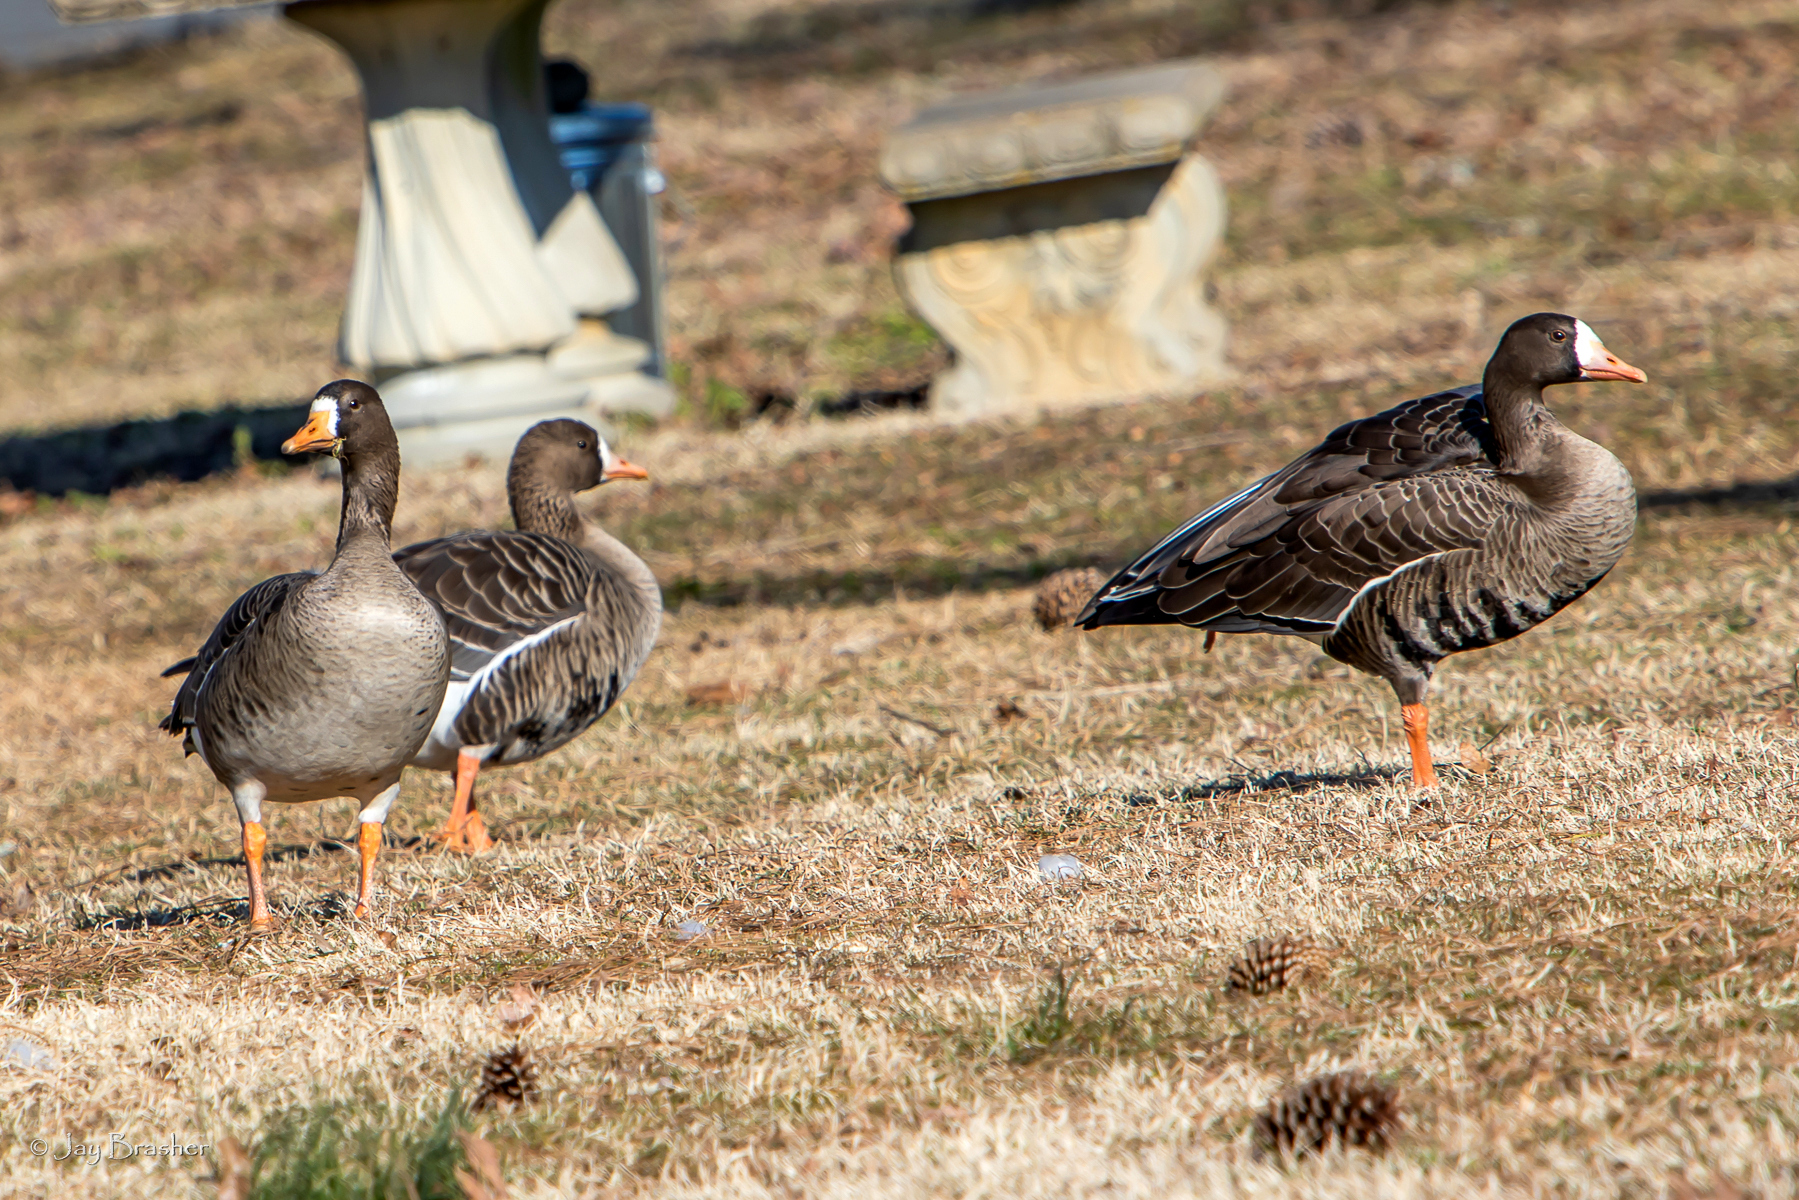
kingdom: Animalia
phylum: Chordata
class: Aves
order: Anseriformes
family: Anatidae
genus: Anser
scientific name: Anser albifrons
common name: Greater white-fronted goose
